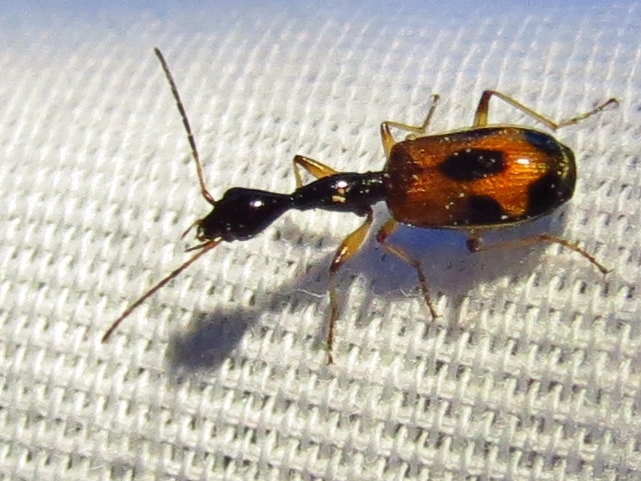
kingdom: Animalia
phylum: Arthropoda
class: Insecta
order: Coleoptera
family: Carabidae
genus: Colliuris
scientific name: Colliuris pensylvanica
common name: Long-necked ground beetle
